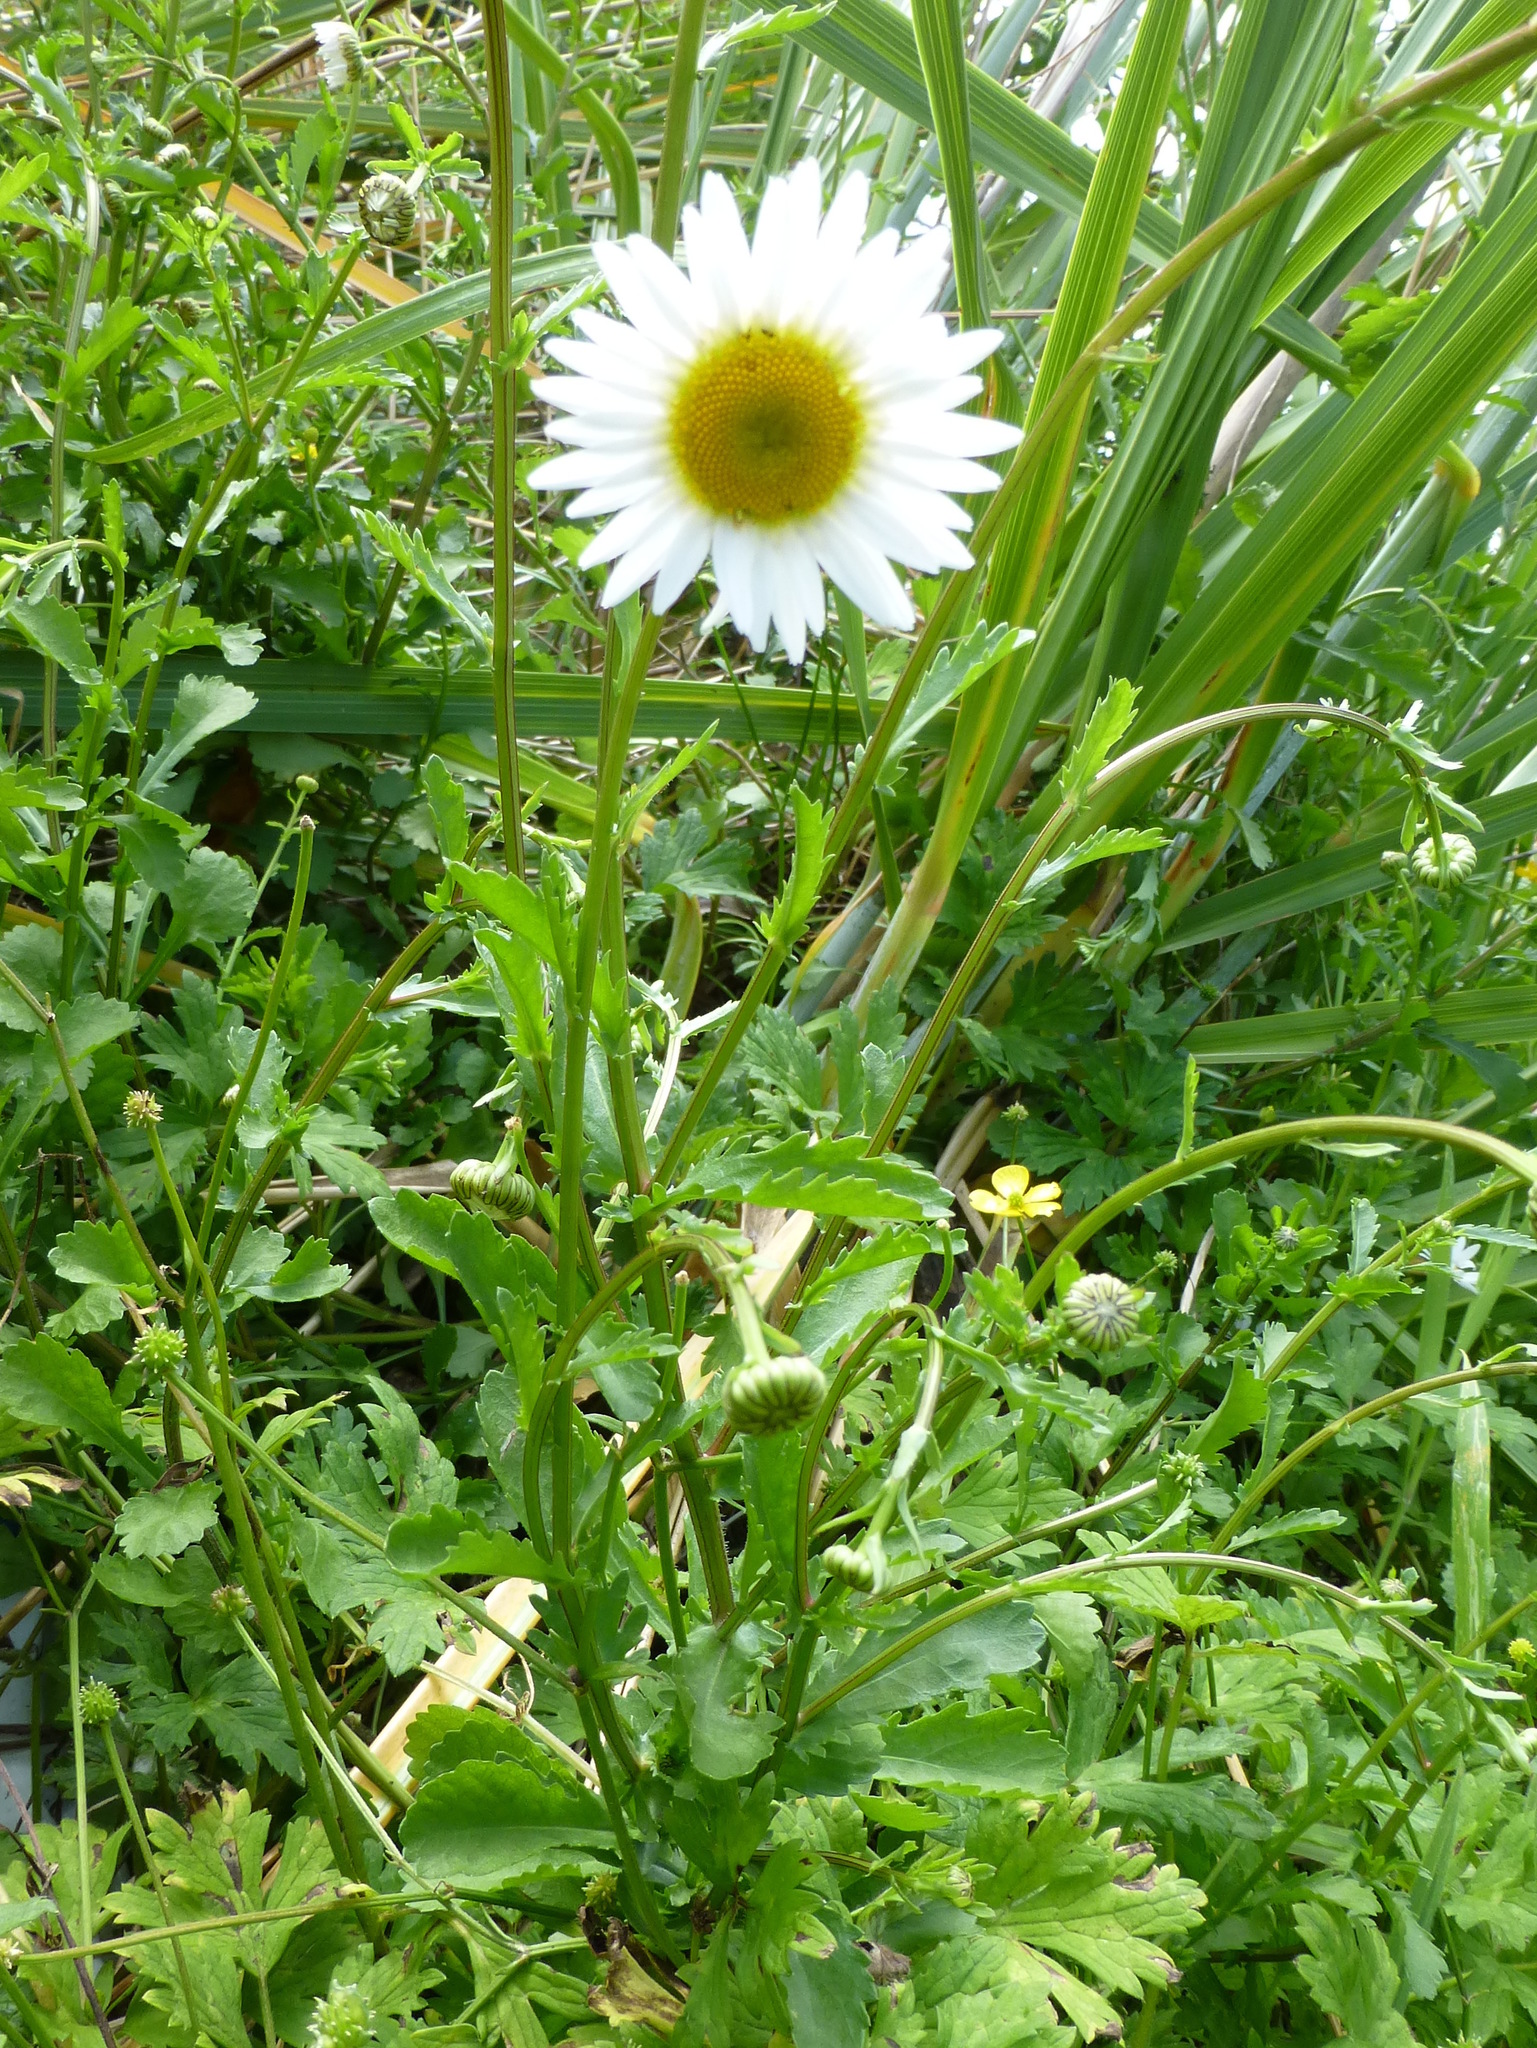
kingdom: Plantae
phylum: Tracheophyta
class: Magnoliopsida
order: Asterales
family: Asteraceae
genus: Leucanthemum
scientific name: Leucanthemum vulgare
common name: Oxeye daisy
